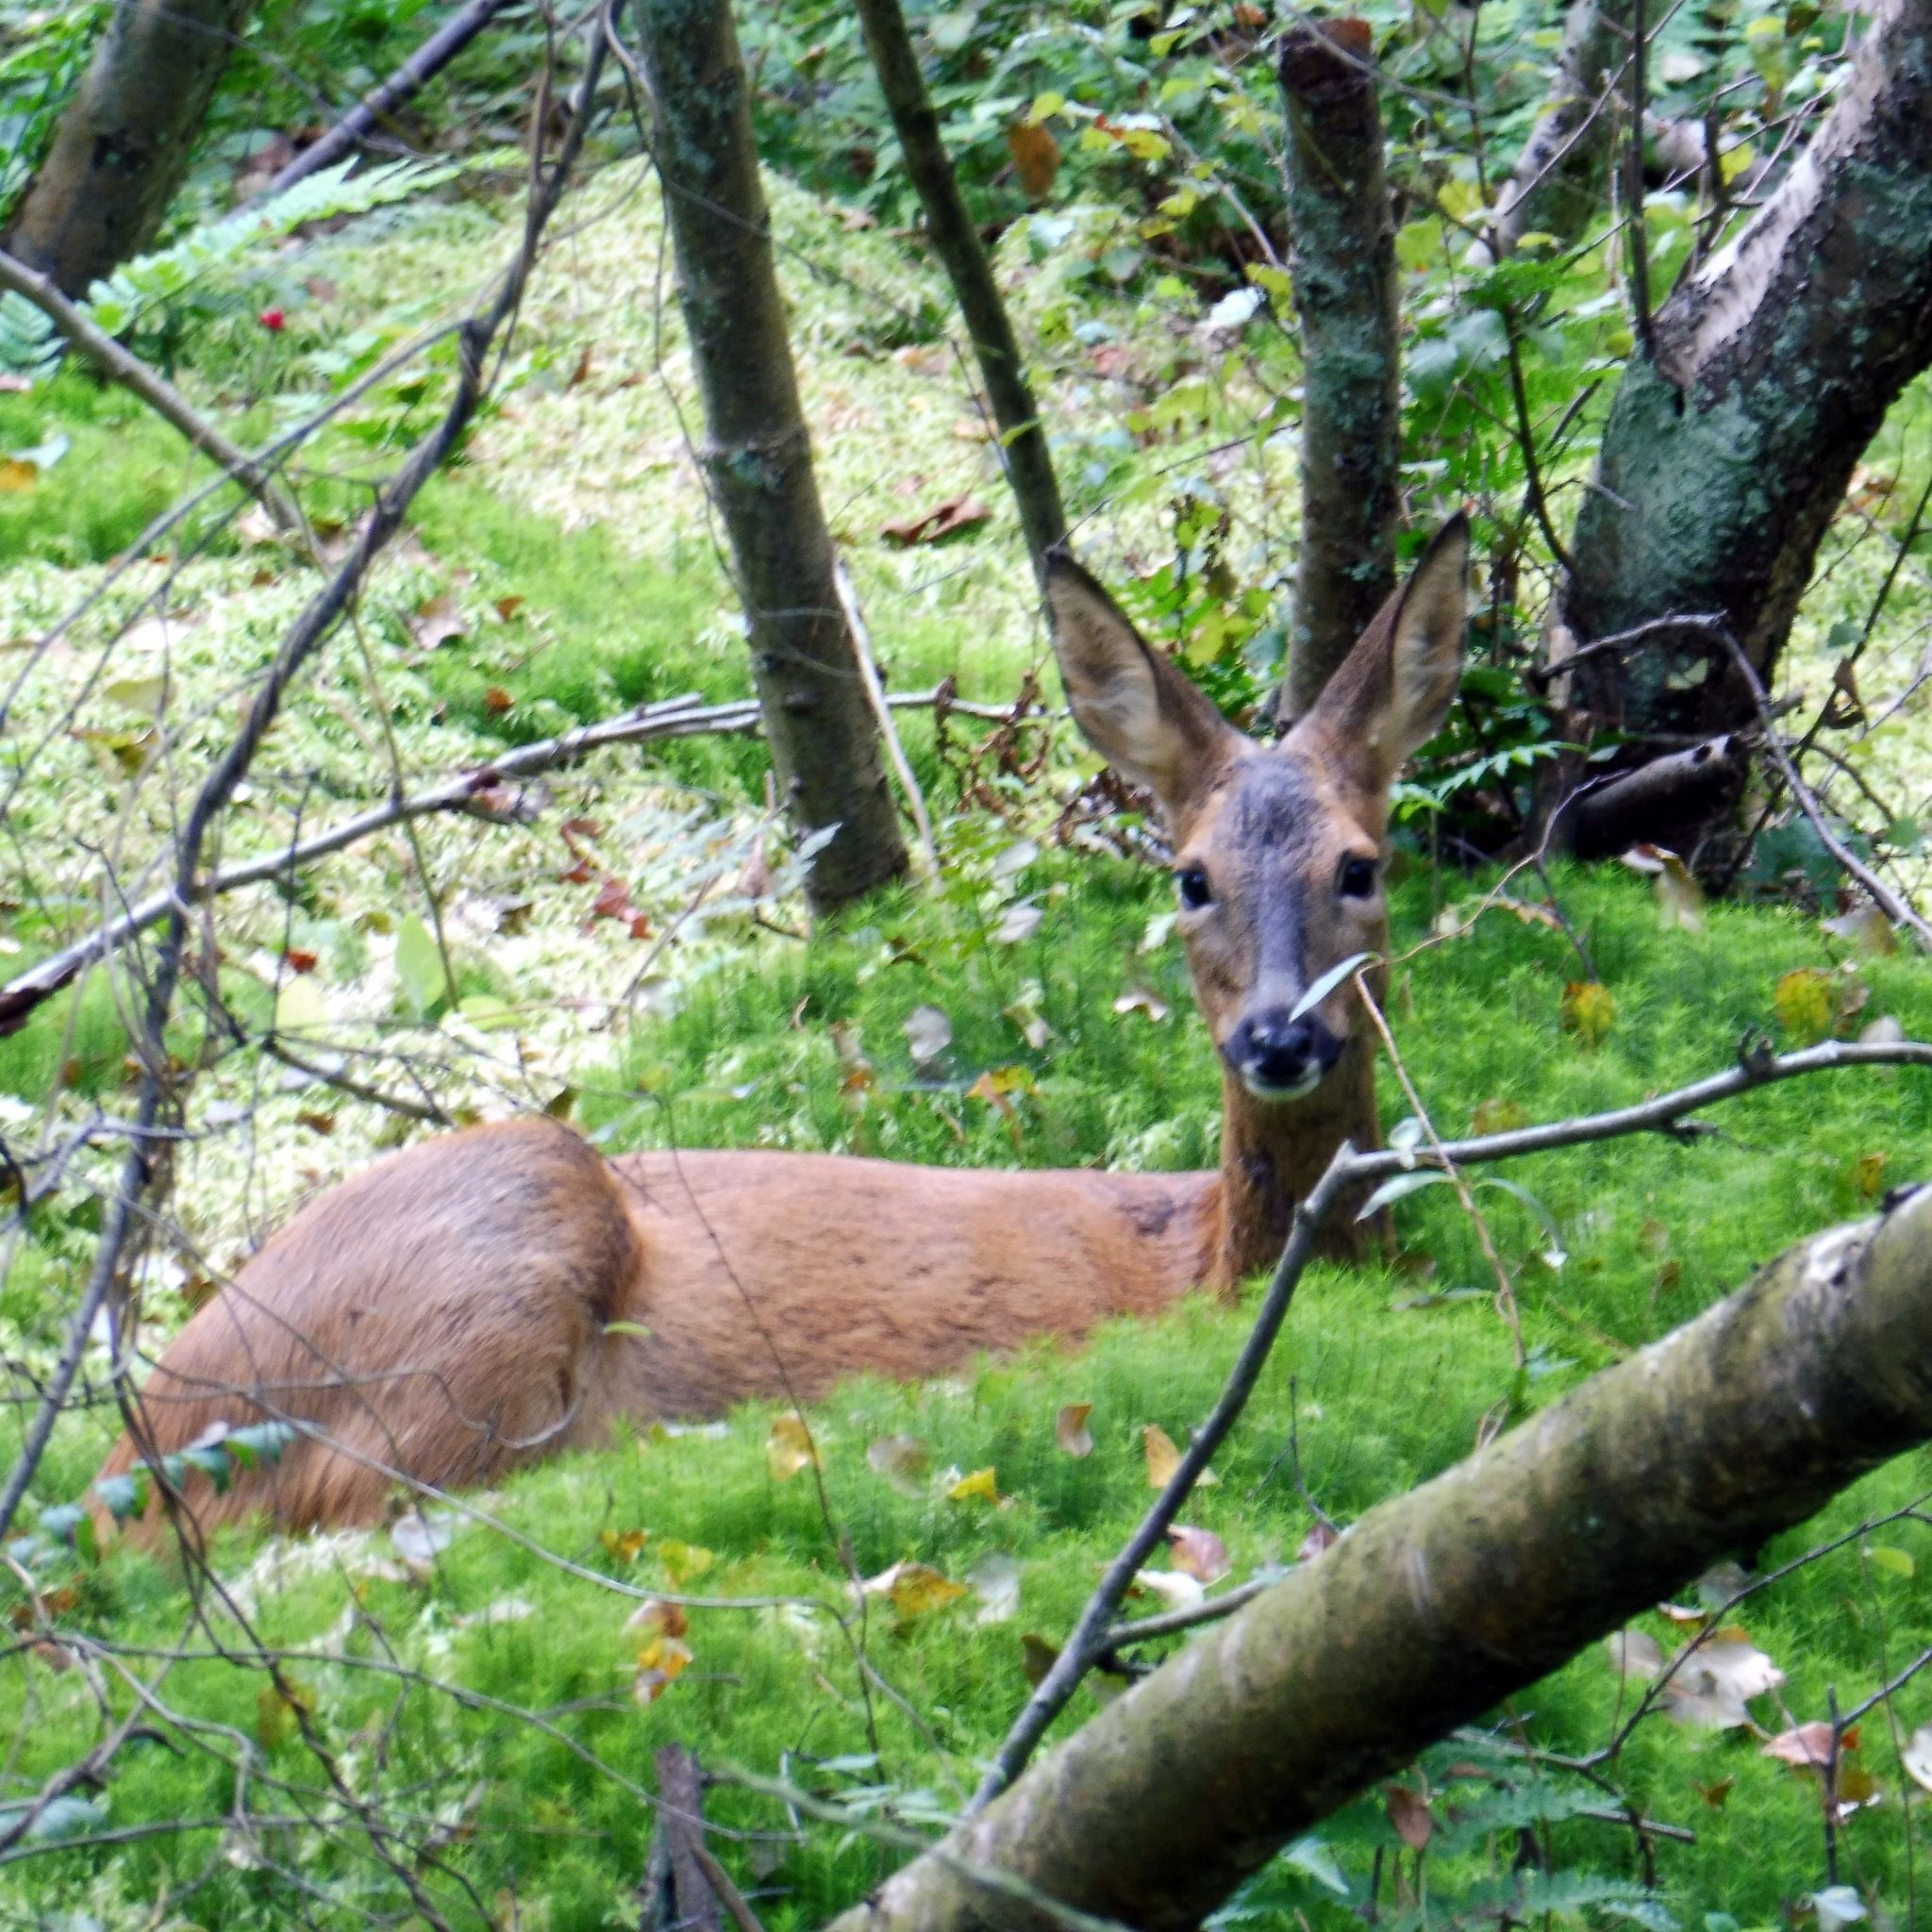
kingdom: Animalia
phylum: Chordata
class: Mammalia
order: Artiodactyla
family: Cervidae
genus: Capreolus
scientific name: Capreolus capreolus
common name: Western roe deer
